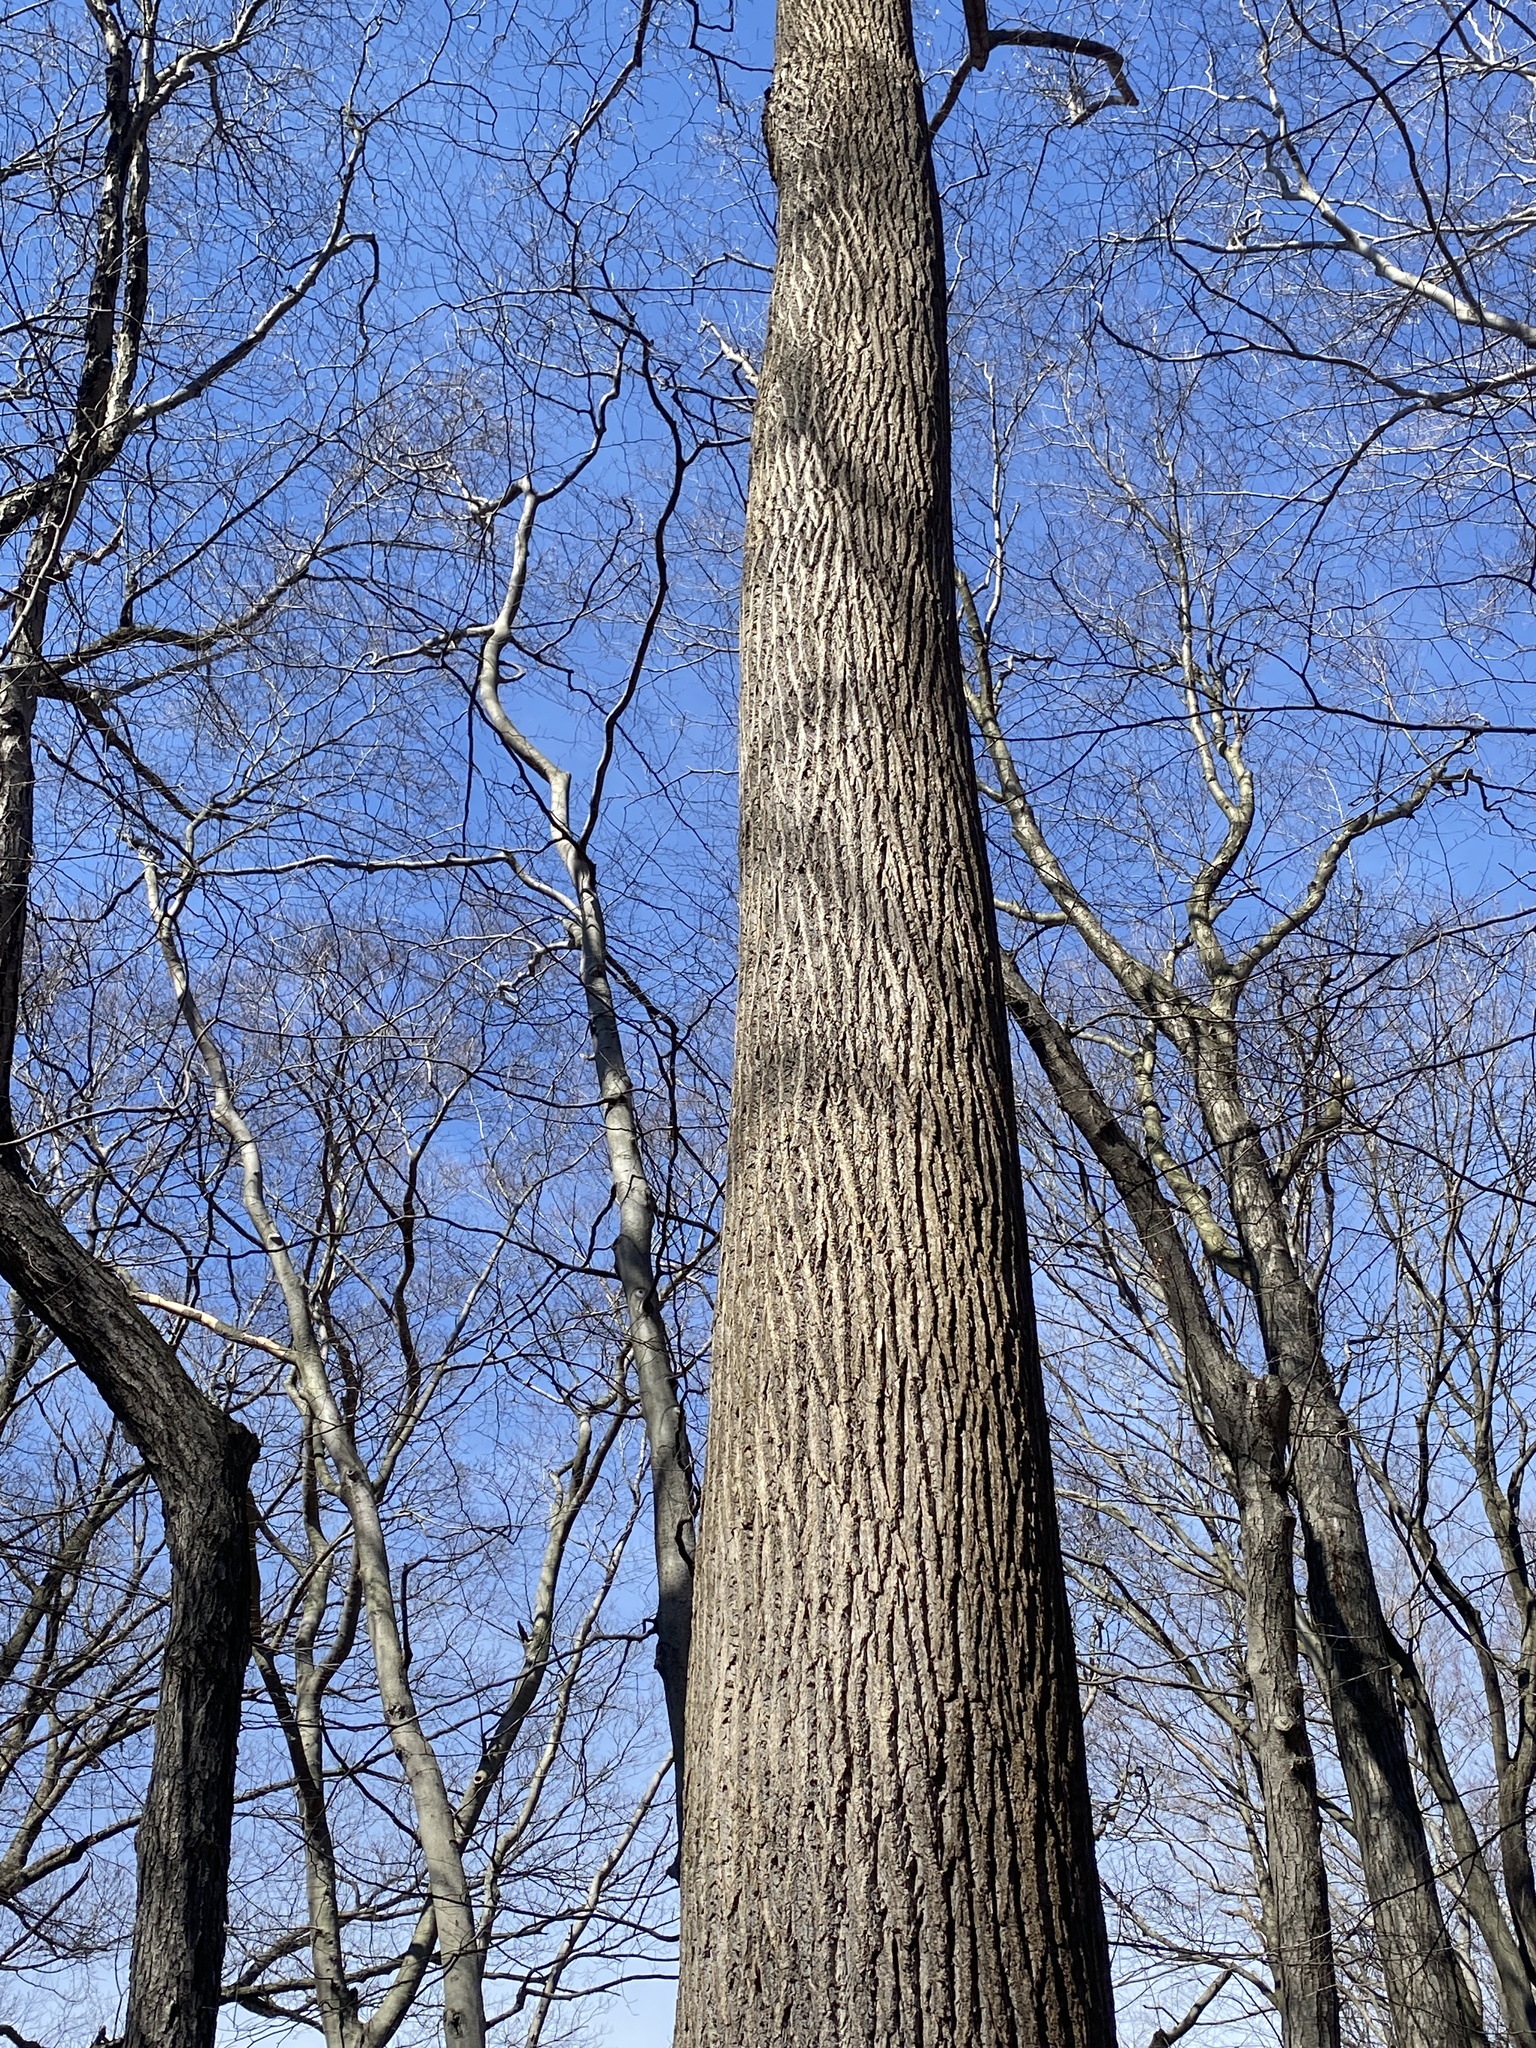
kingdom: Plantae
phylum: Tracheophyta
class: Magnoliopsida
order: Magnoliales
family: Magnoliaceae
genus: Liriodendron
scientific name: Liriodendron tulipifera
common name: Tulip tree
